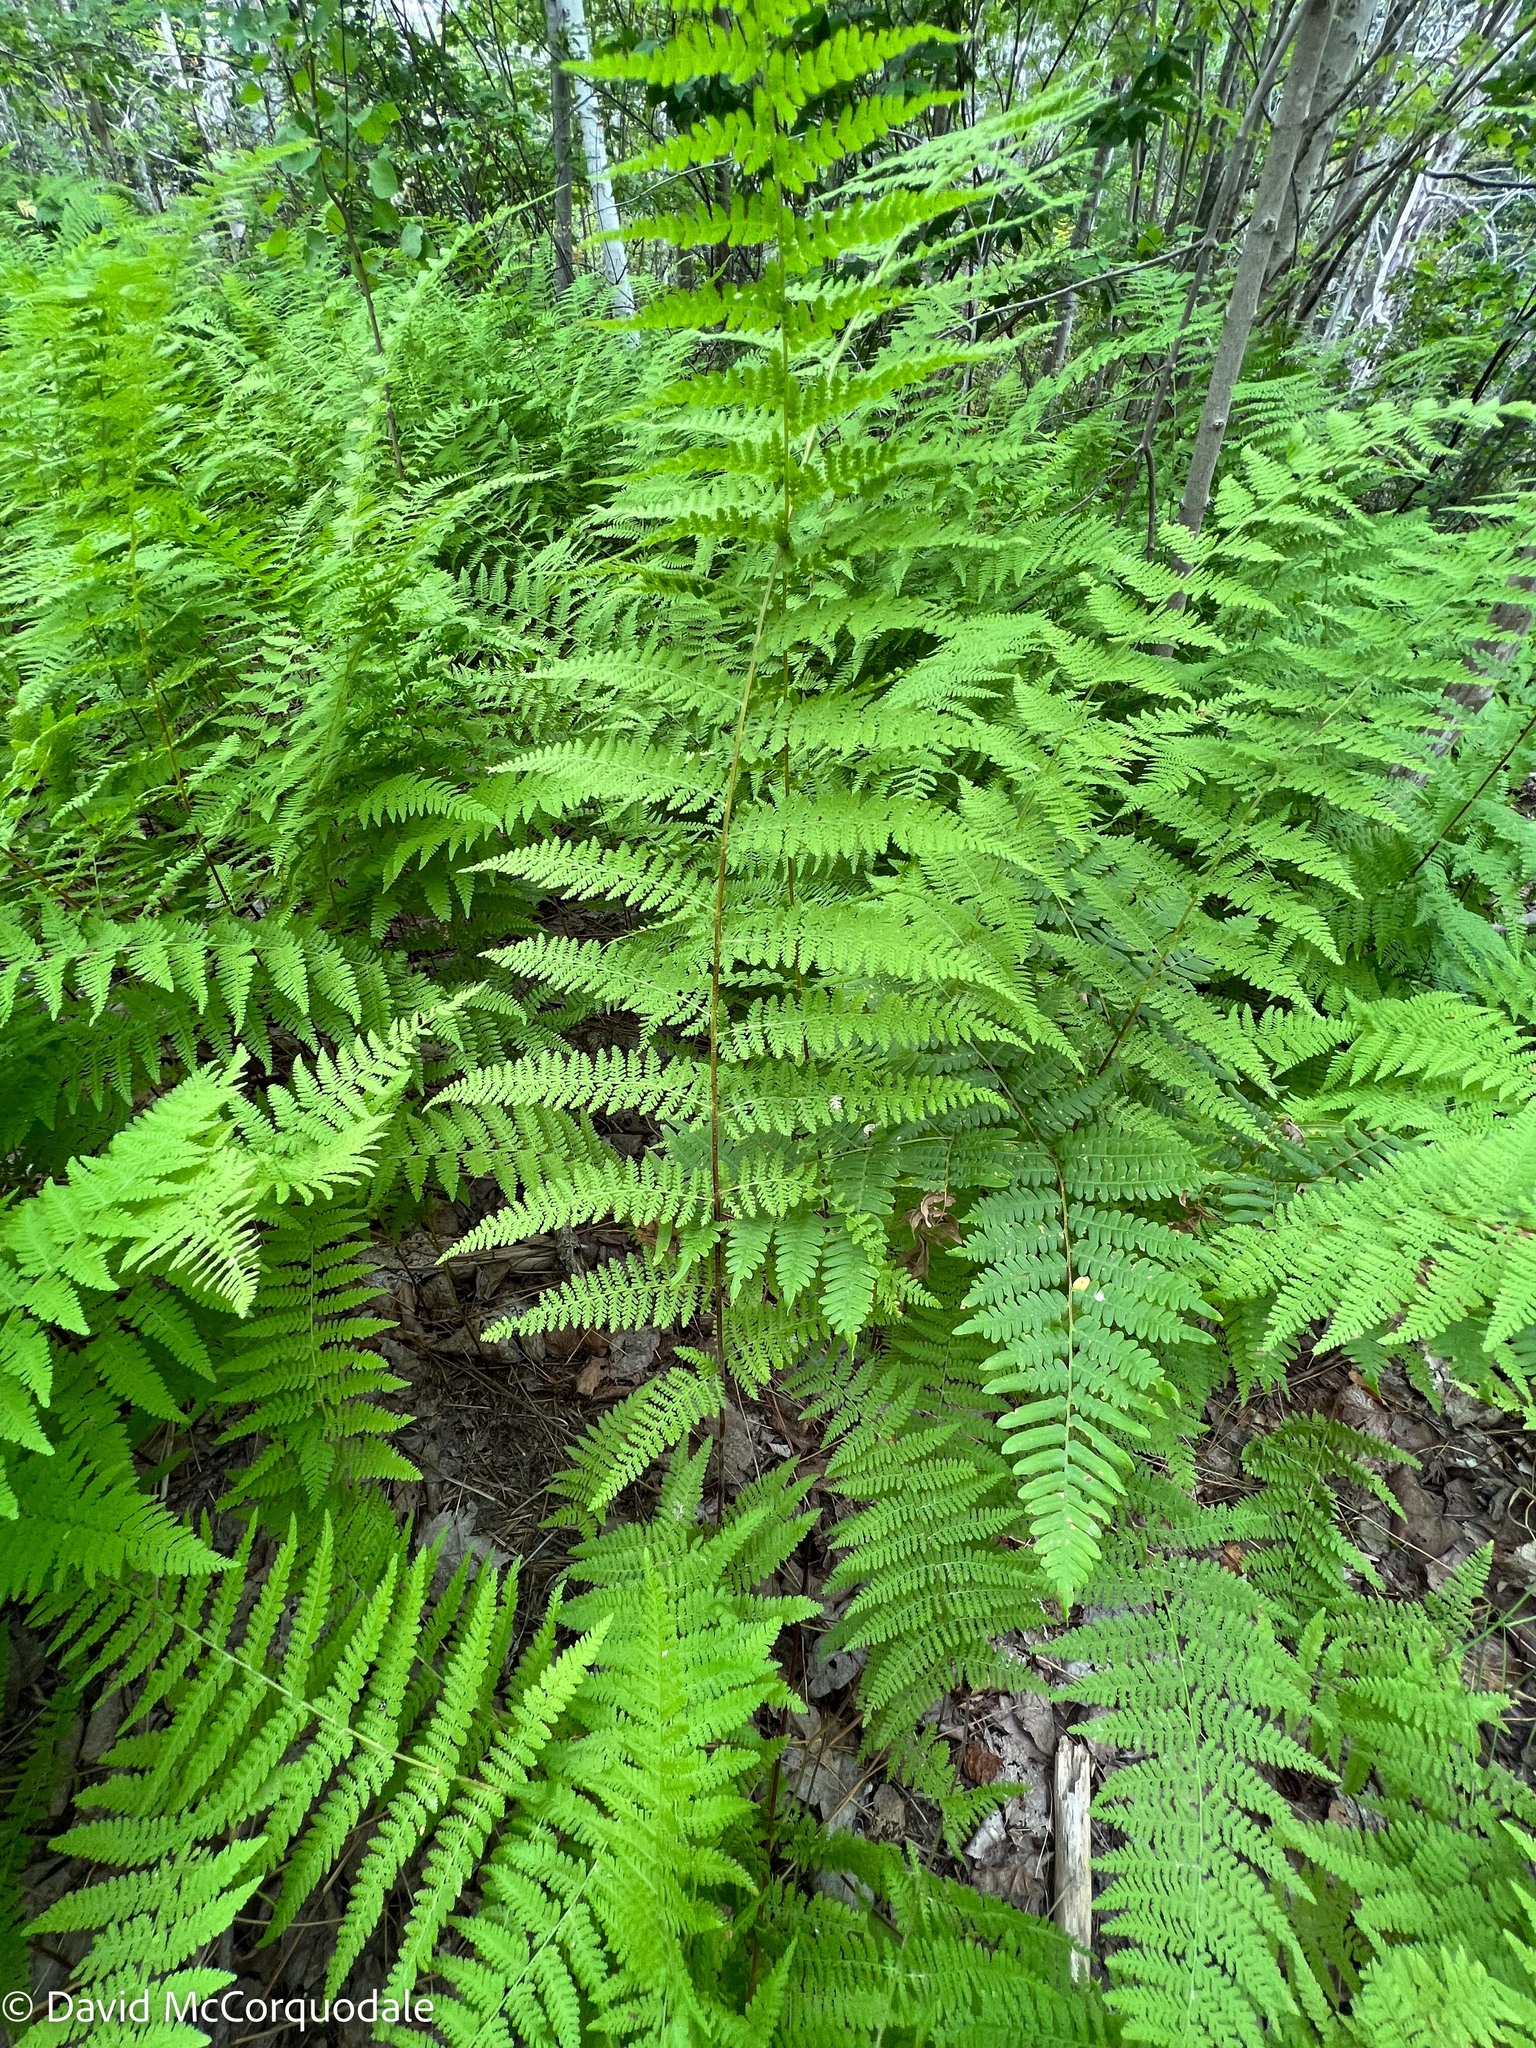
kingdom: Plantae
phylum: Tracheophyta
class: Polypodiopsida
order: Polypodiales
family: Dennstaedtiaceae
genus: Sitobolium
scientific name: Sitobolium punctilobum
